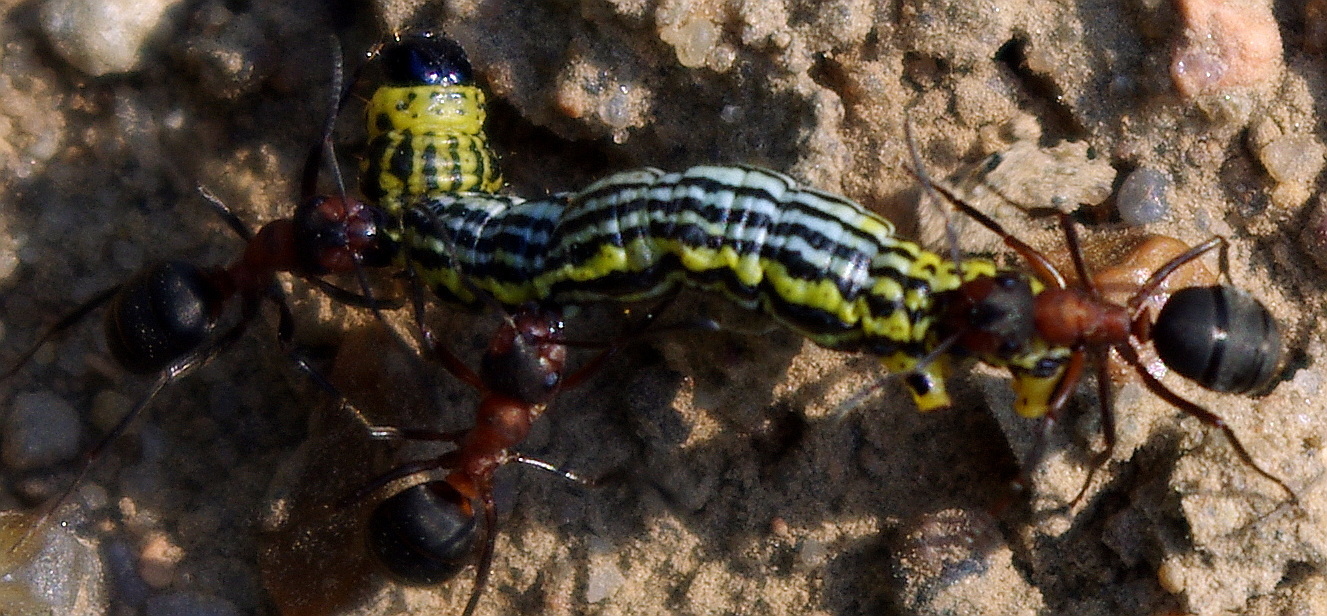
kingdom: Animalia
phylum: Arthropoda
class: Insecta
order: Lepidoptera
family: Geometridae
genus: Abraxas
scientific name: Abraxas sylvata
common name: Clouded magpie
